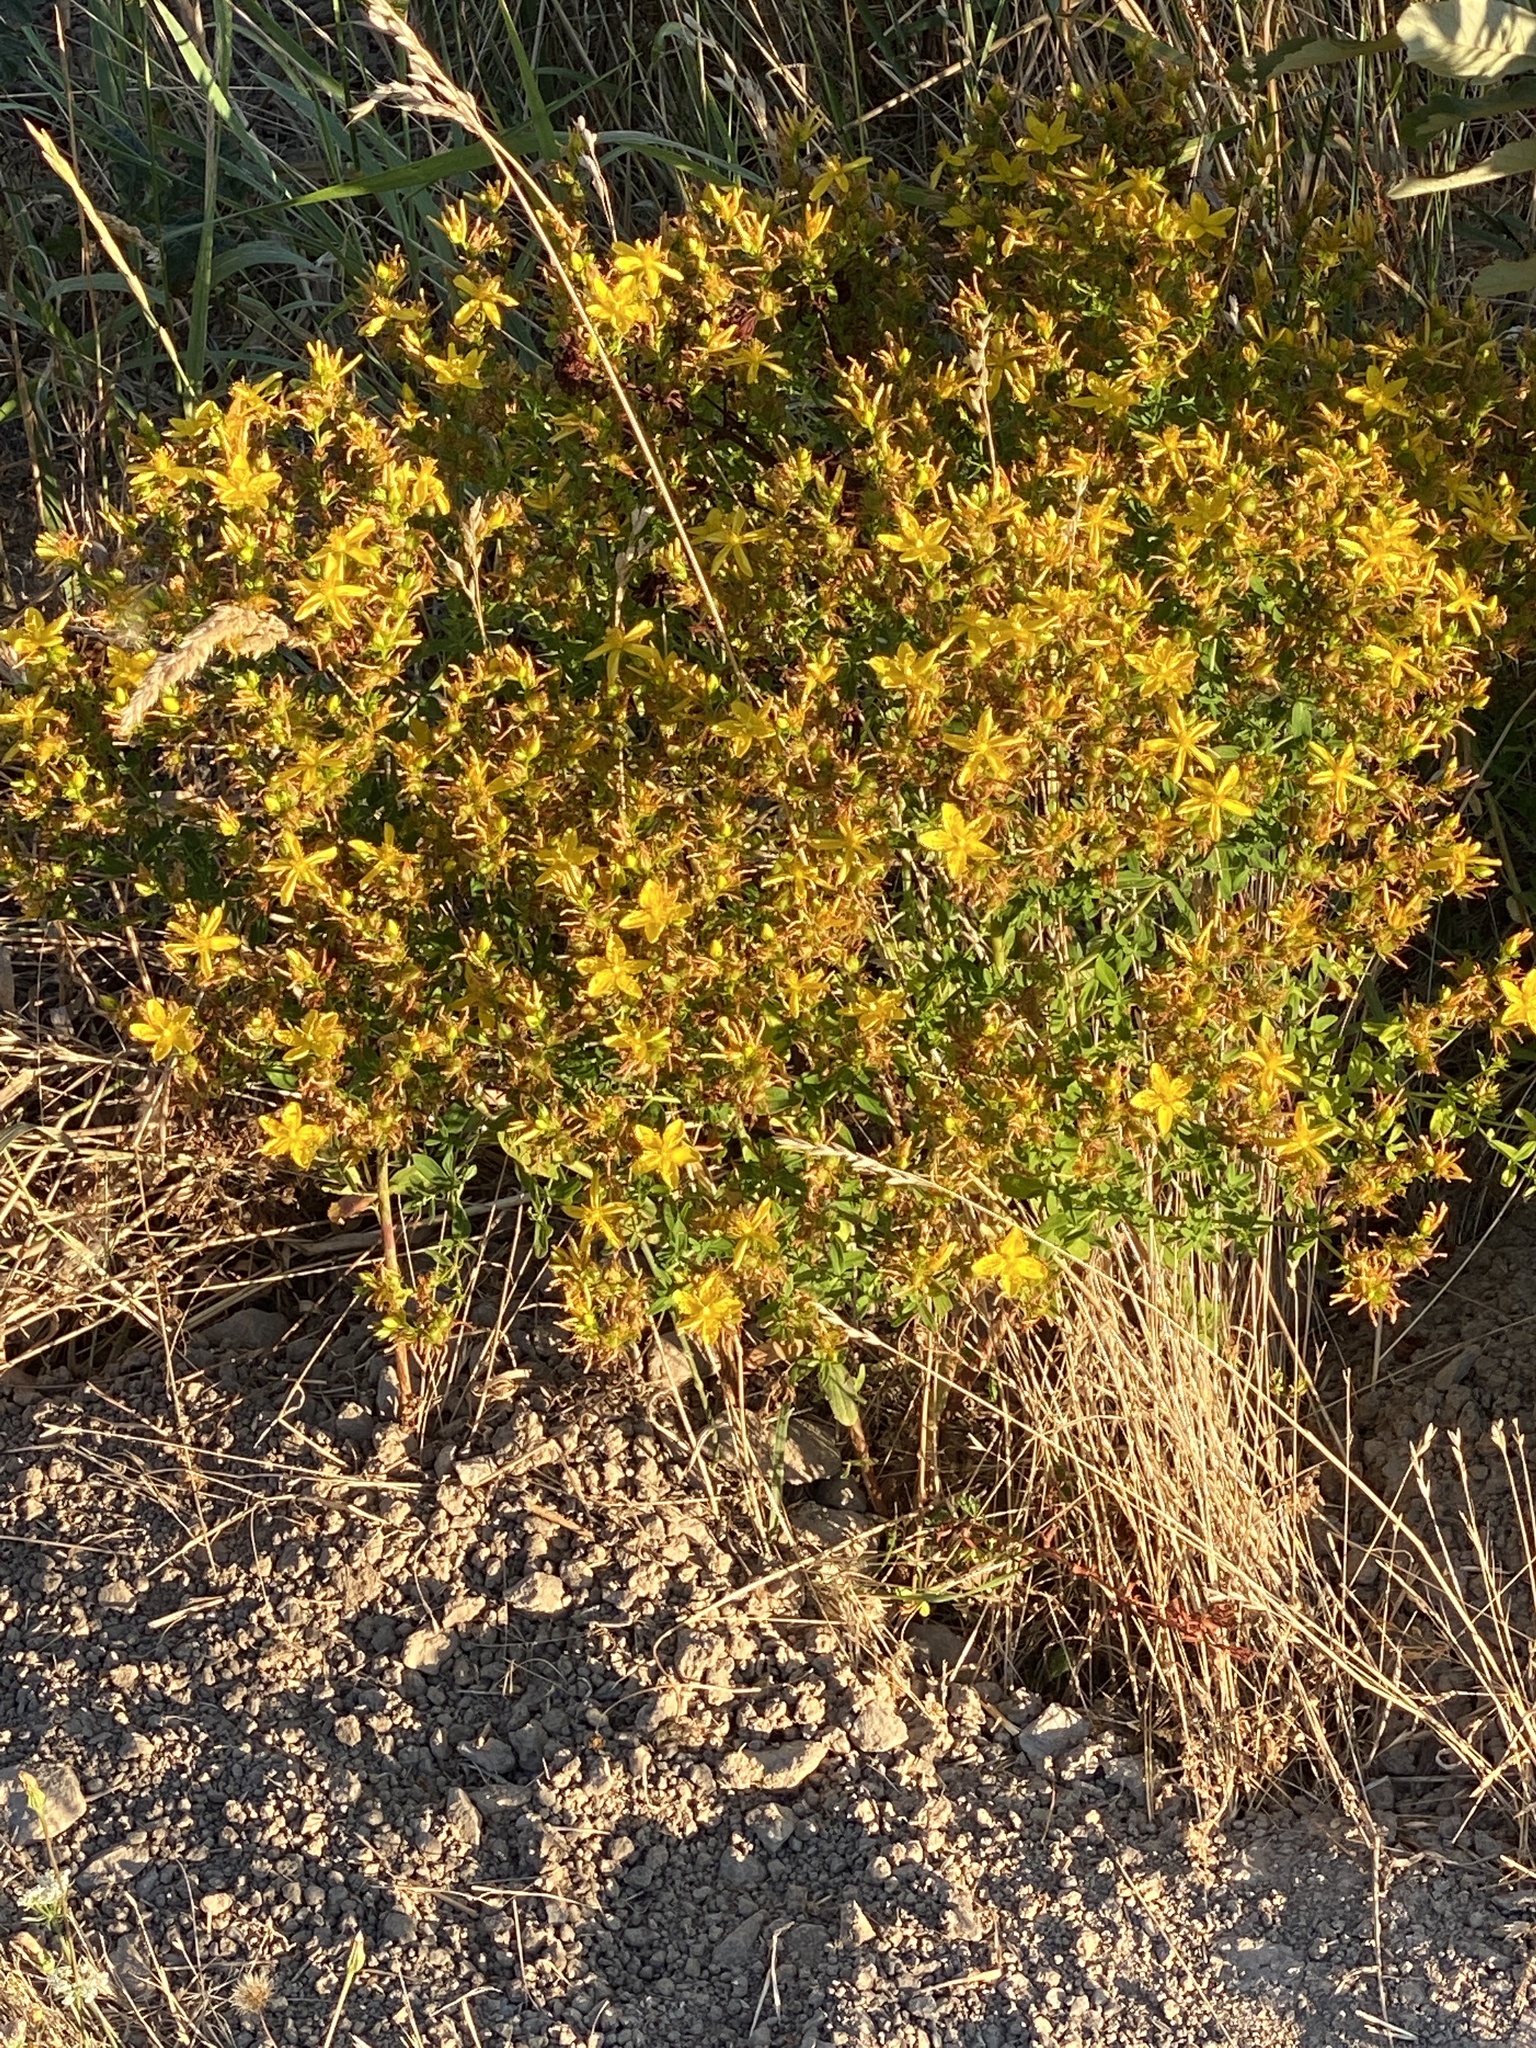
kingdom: Plantae
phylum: Tracheophyta
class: Magnoliopsida
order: Malpighiales
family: Hypericaceae
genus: Hypericum
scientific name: Hypericum perforatum
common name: Common st. johnswort
